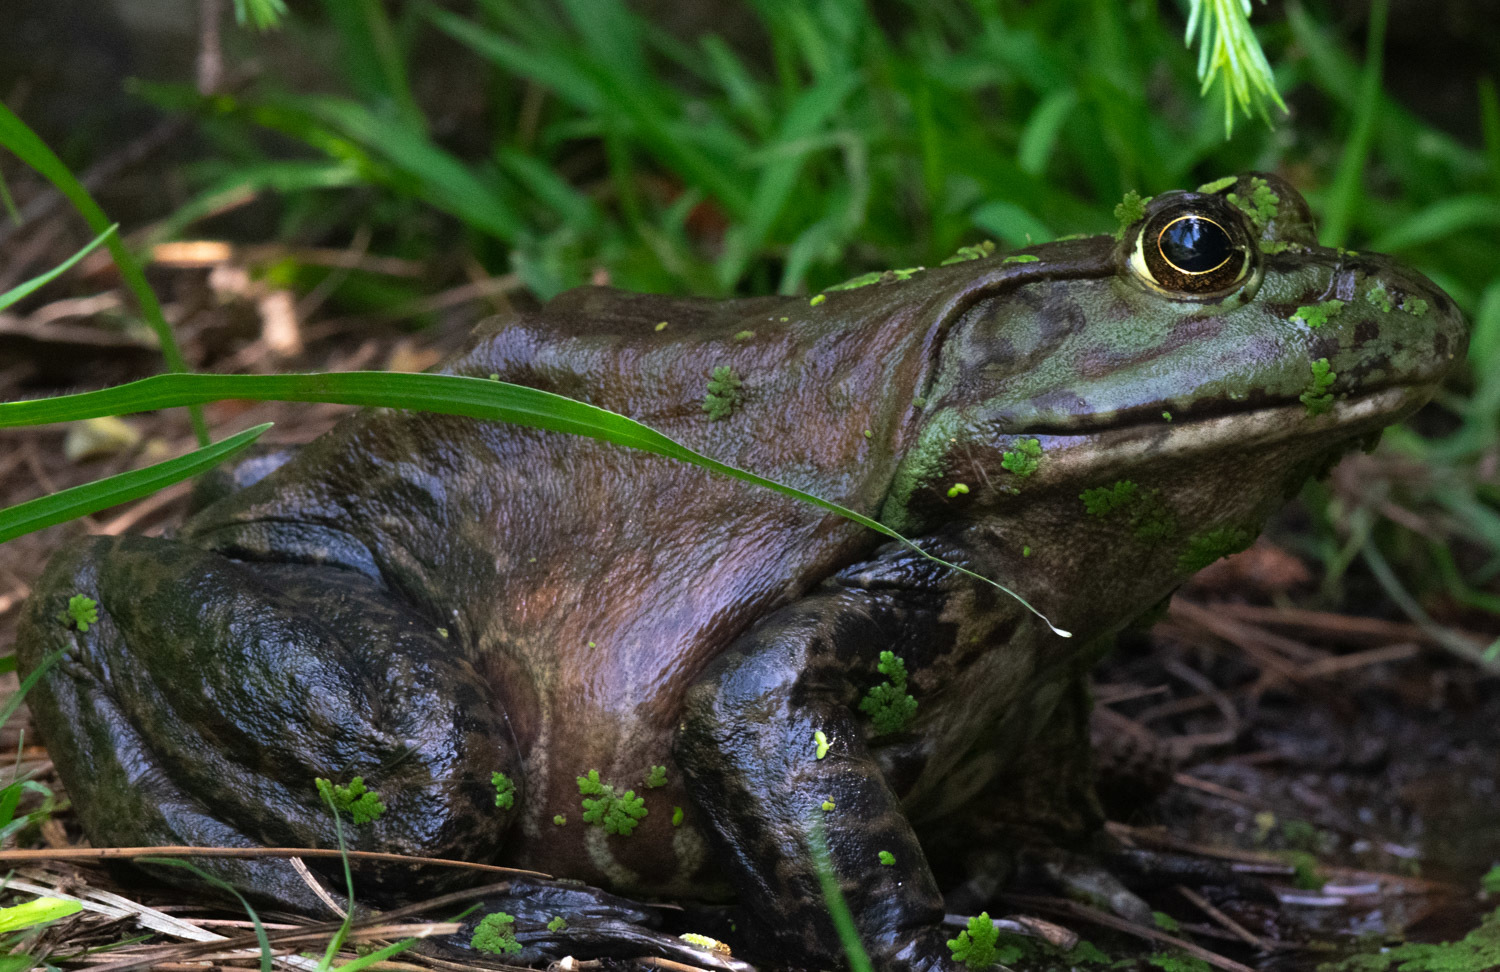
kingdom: Animalia
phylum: Chordata
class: Amphibia
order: Anura
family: Ranidae
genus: Lithobates
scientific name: Lithobates catesbeianus
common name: American bullfrog
